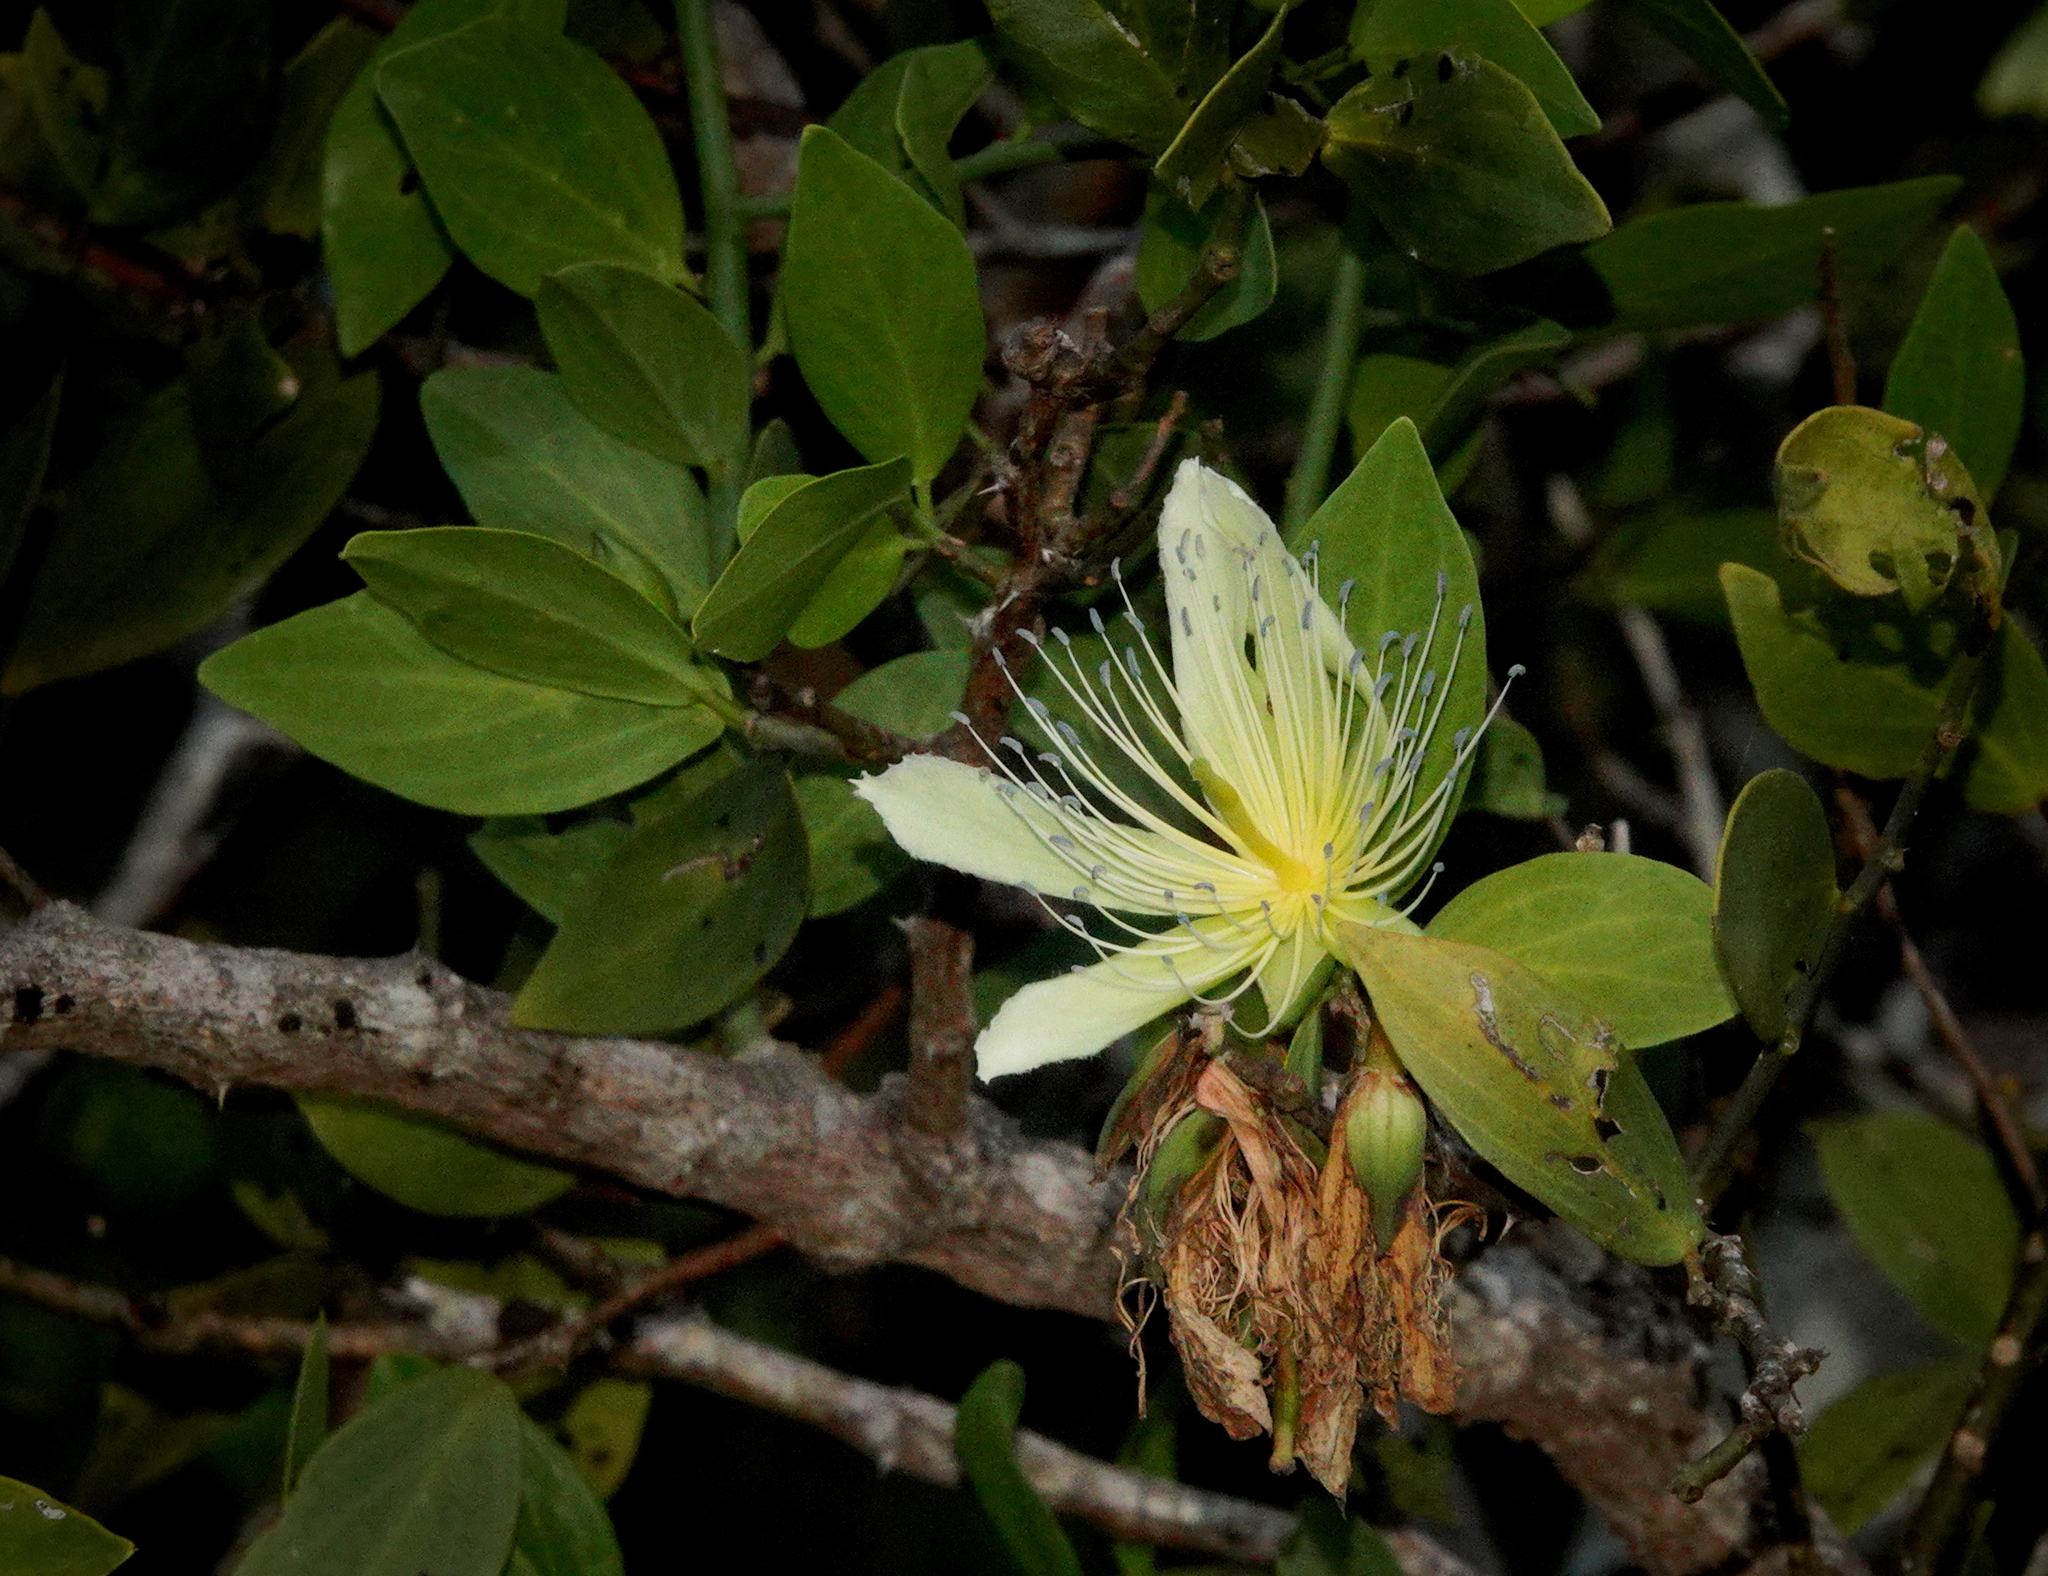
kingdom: Plantae
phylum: Tracheophyta
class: Magnoliopsida
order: Brassicales
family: Capparaceae
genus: Capparis
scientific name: Capparis divaricata
